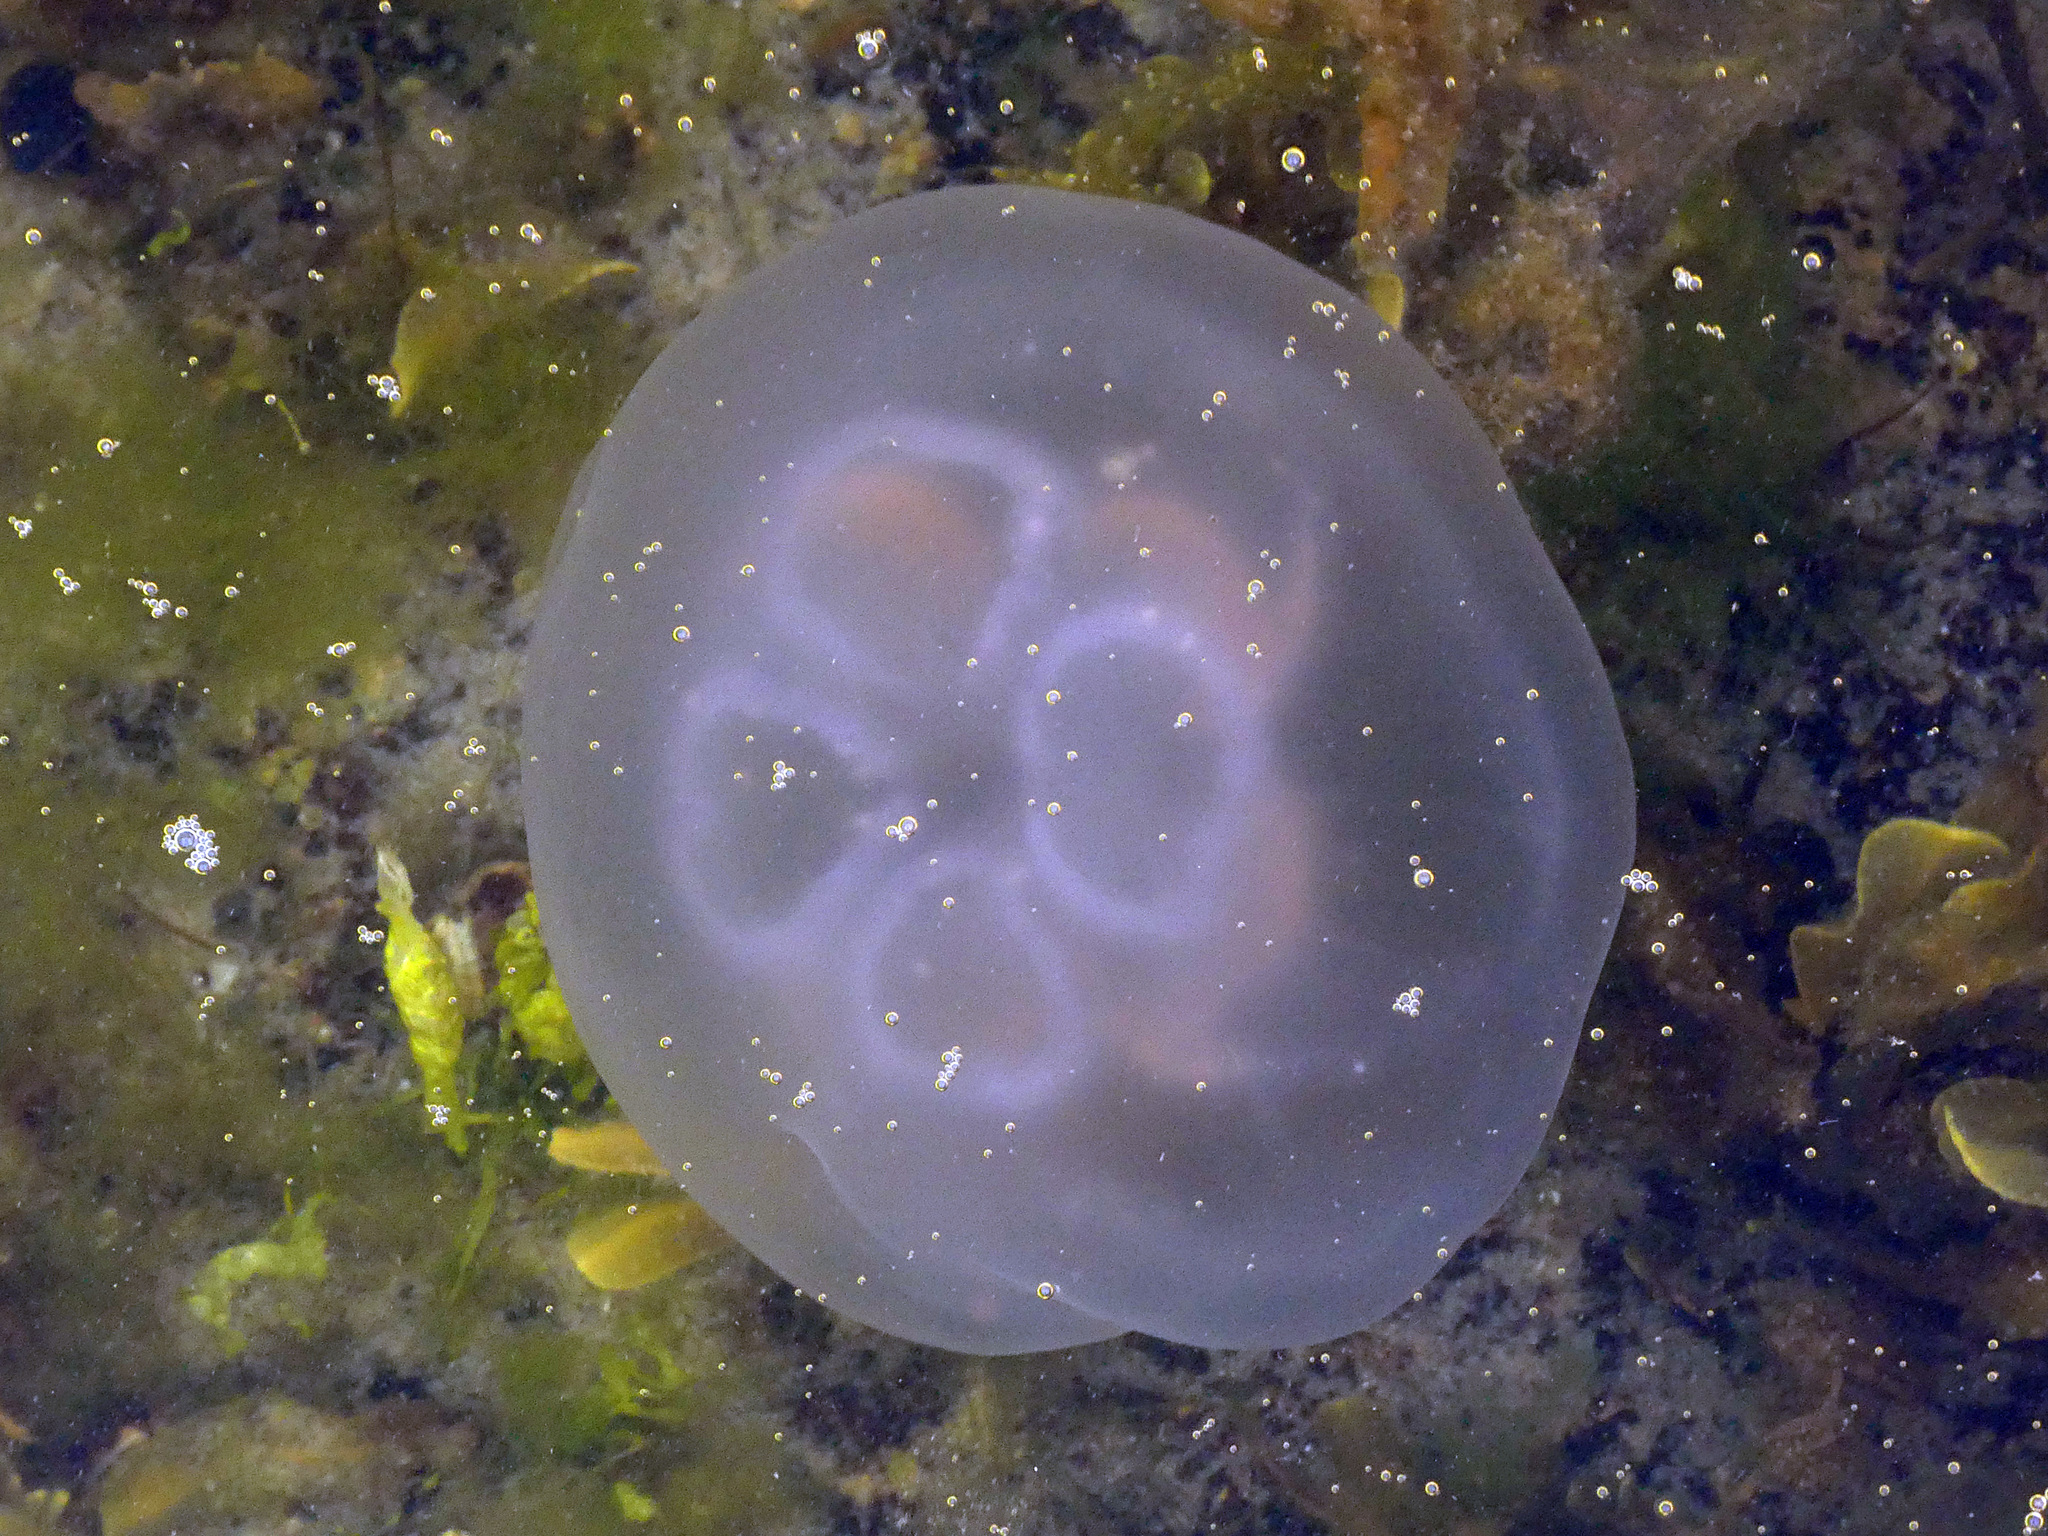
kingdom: Animalia
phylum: Cnidaria
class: Scyphozoa
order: Semaeostomeae
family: Ulmaridae
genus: Aurelia
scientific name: Aurelia aurita
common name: Moon jellyfish
